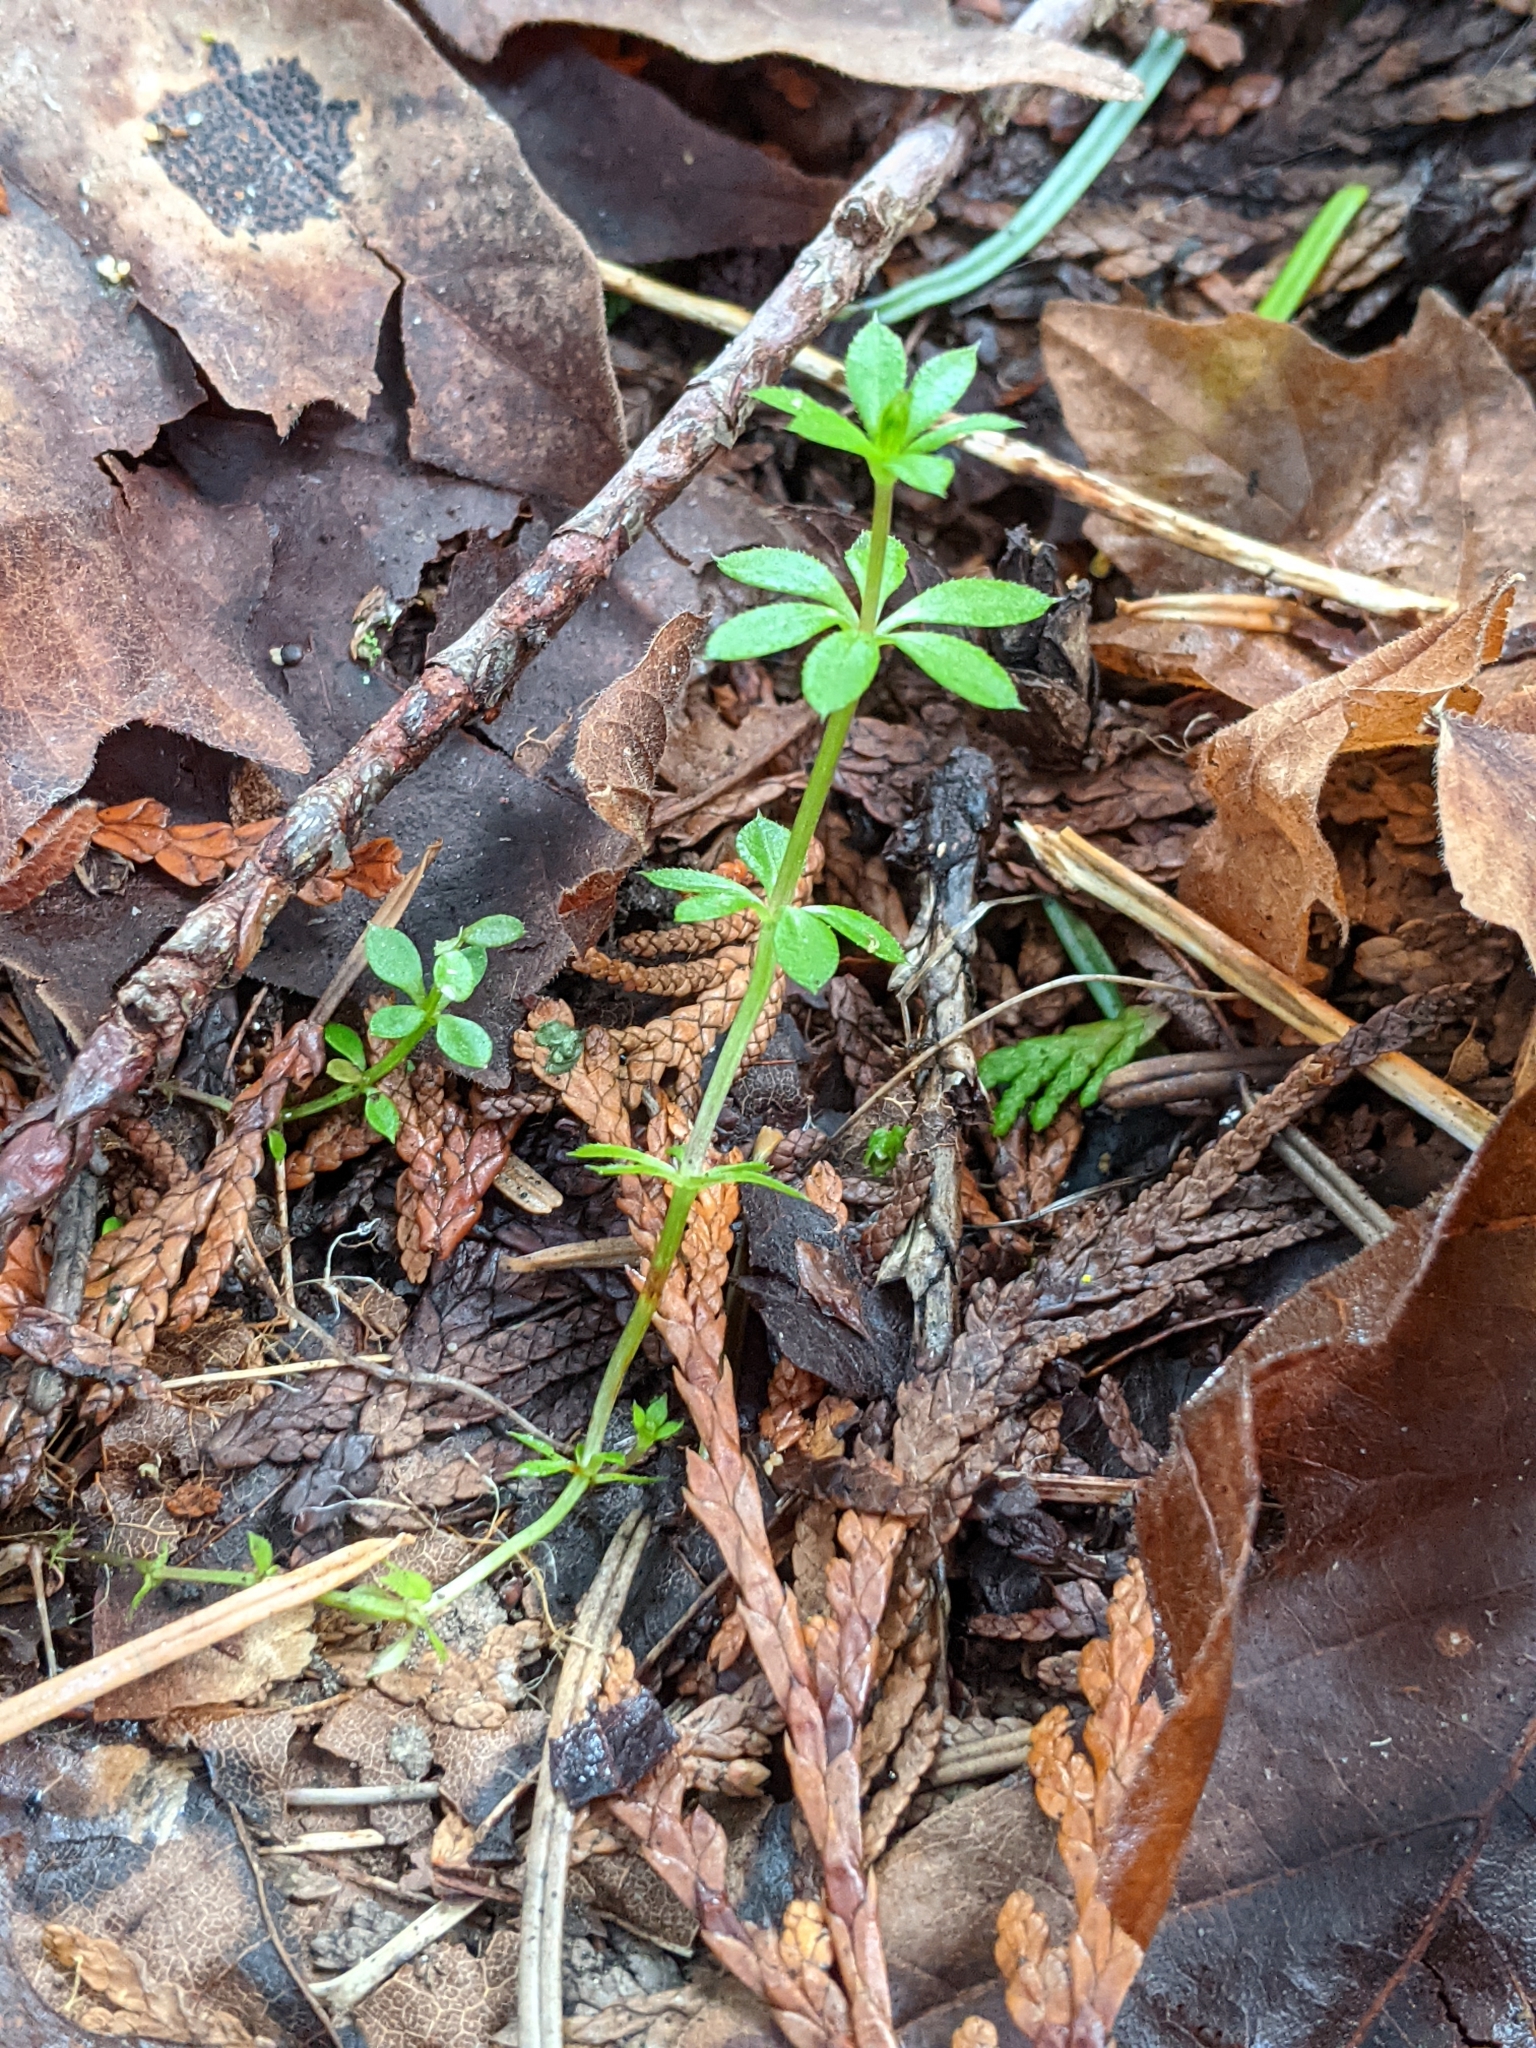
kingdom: Plantae
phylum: Tracheophyta
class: Magnoliopsida
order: Gentianales
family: Rubiaceae
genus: Galium
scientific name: Galium triflorum
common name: Fragrant bedstraw
